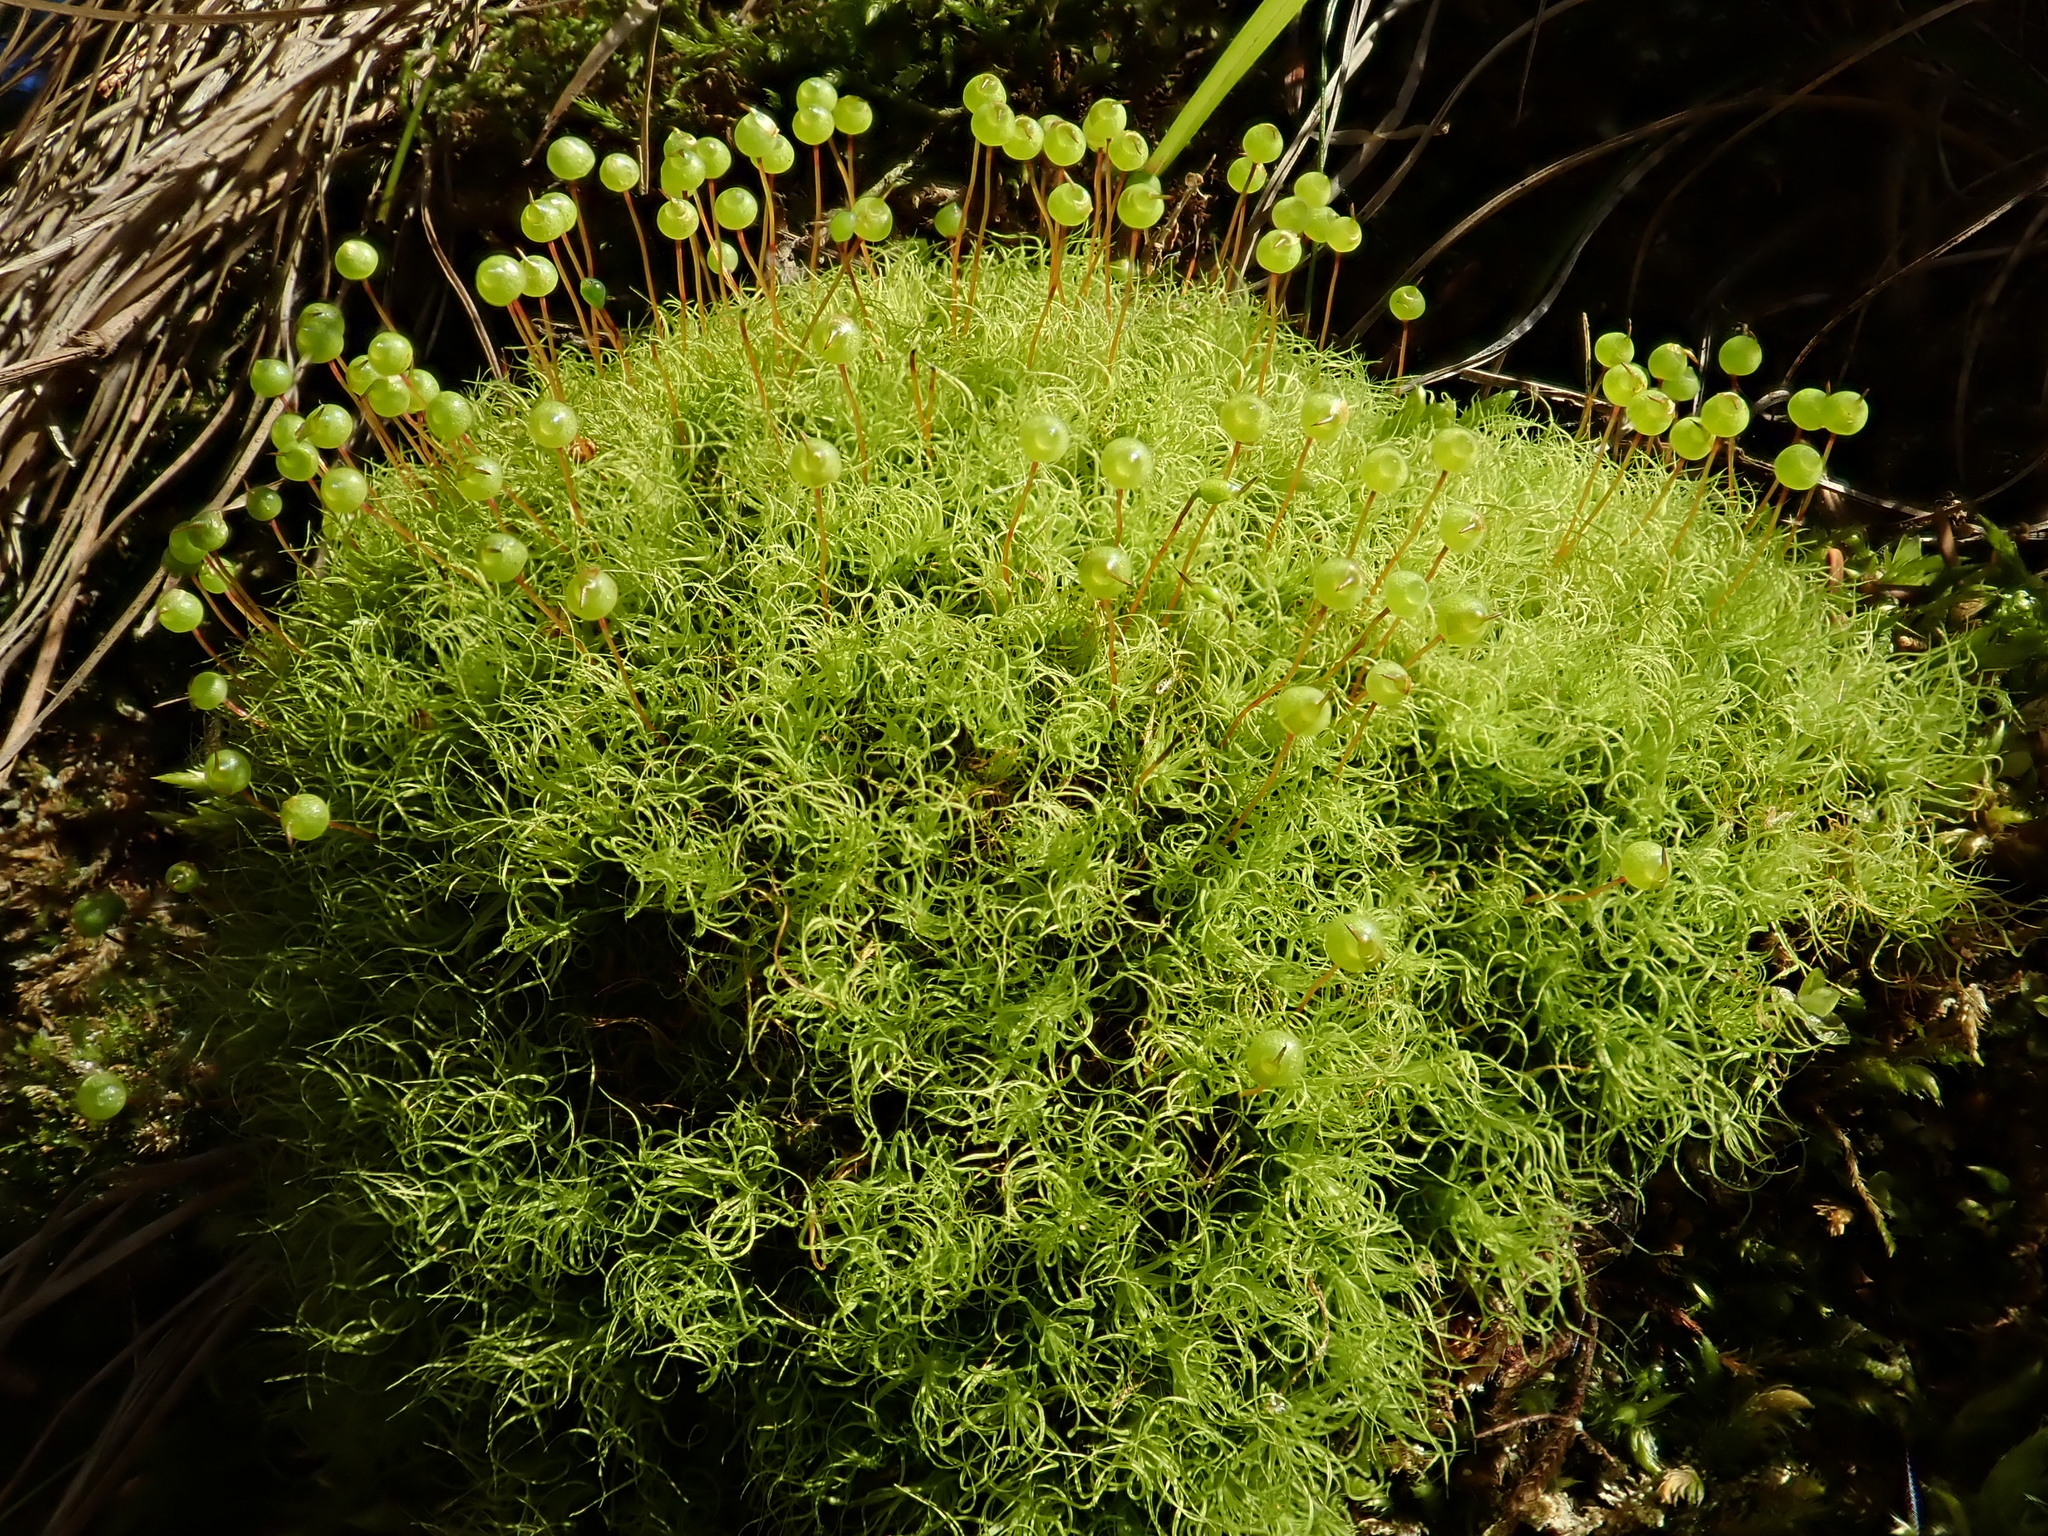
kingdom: Plantae
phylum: Bryophyta
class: Bryopsida
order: Bartramiales
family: Bartramiaceae
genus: Bartramia
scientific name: Bartramia ithyphylla
